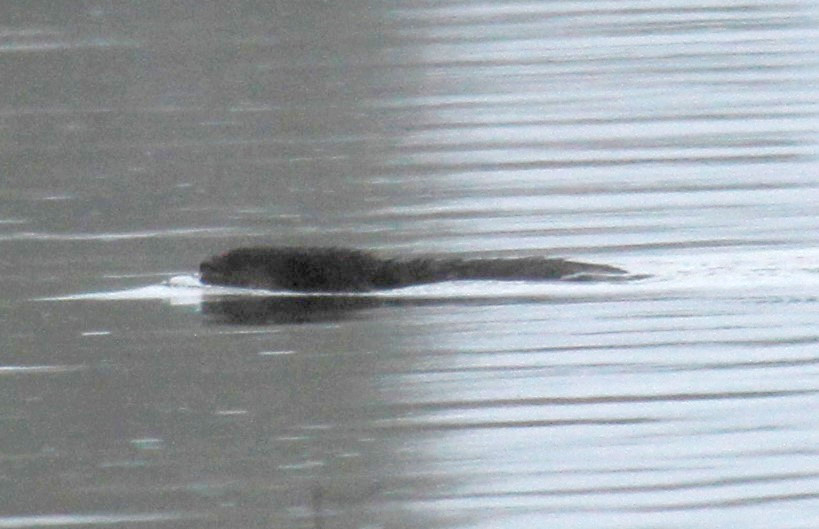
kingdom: Animalia
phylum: Chordata
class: Mammalia
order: Rodentia
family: Cricetidae
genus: Ondatra
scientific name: Ondatra zibethicus
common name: Muskrat
